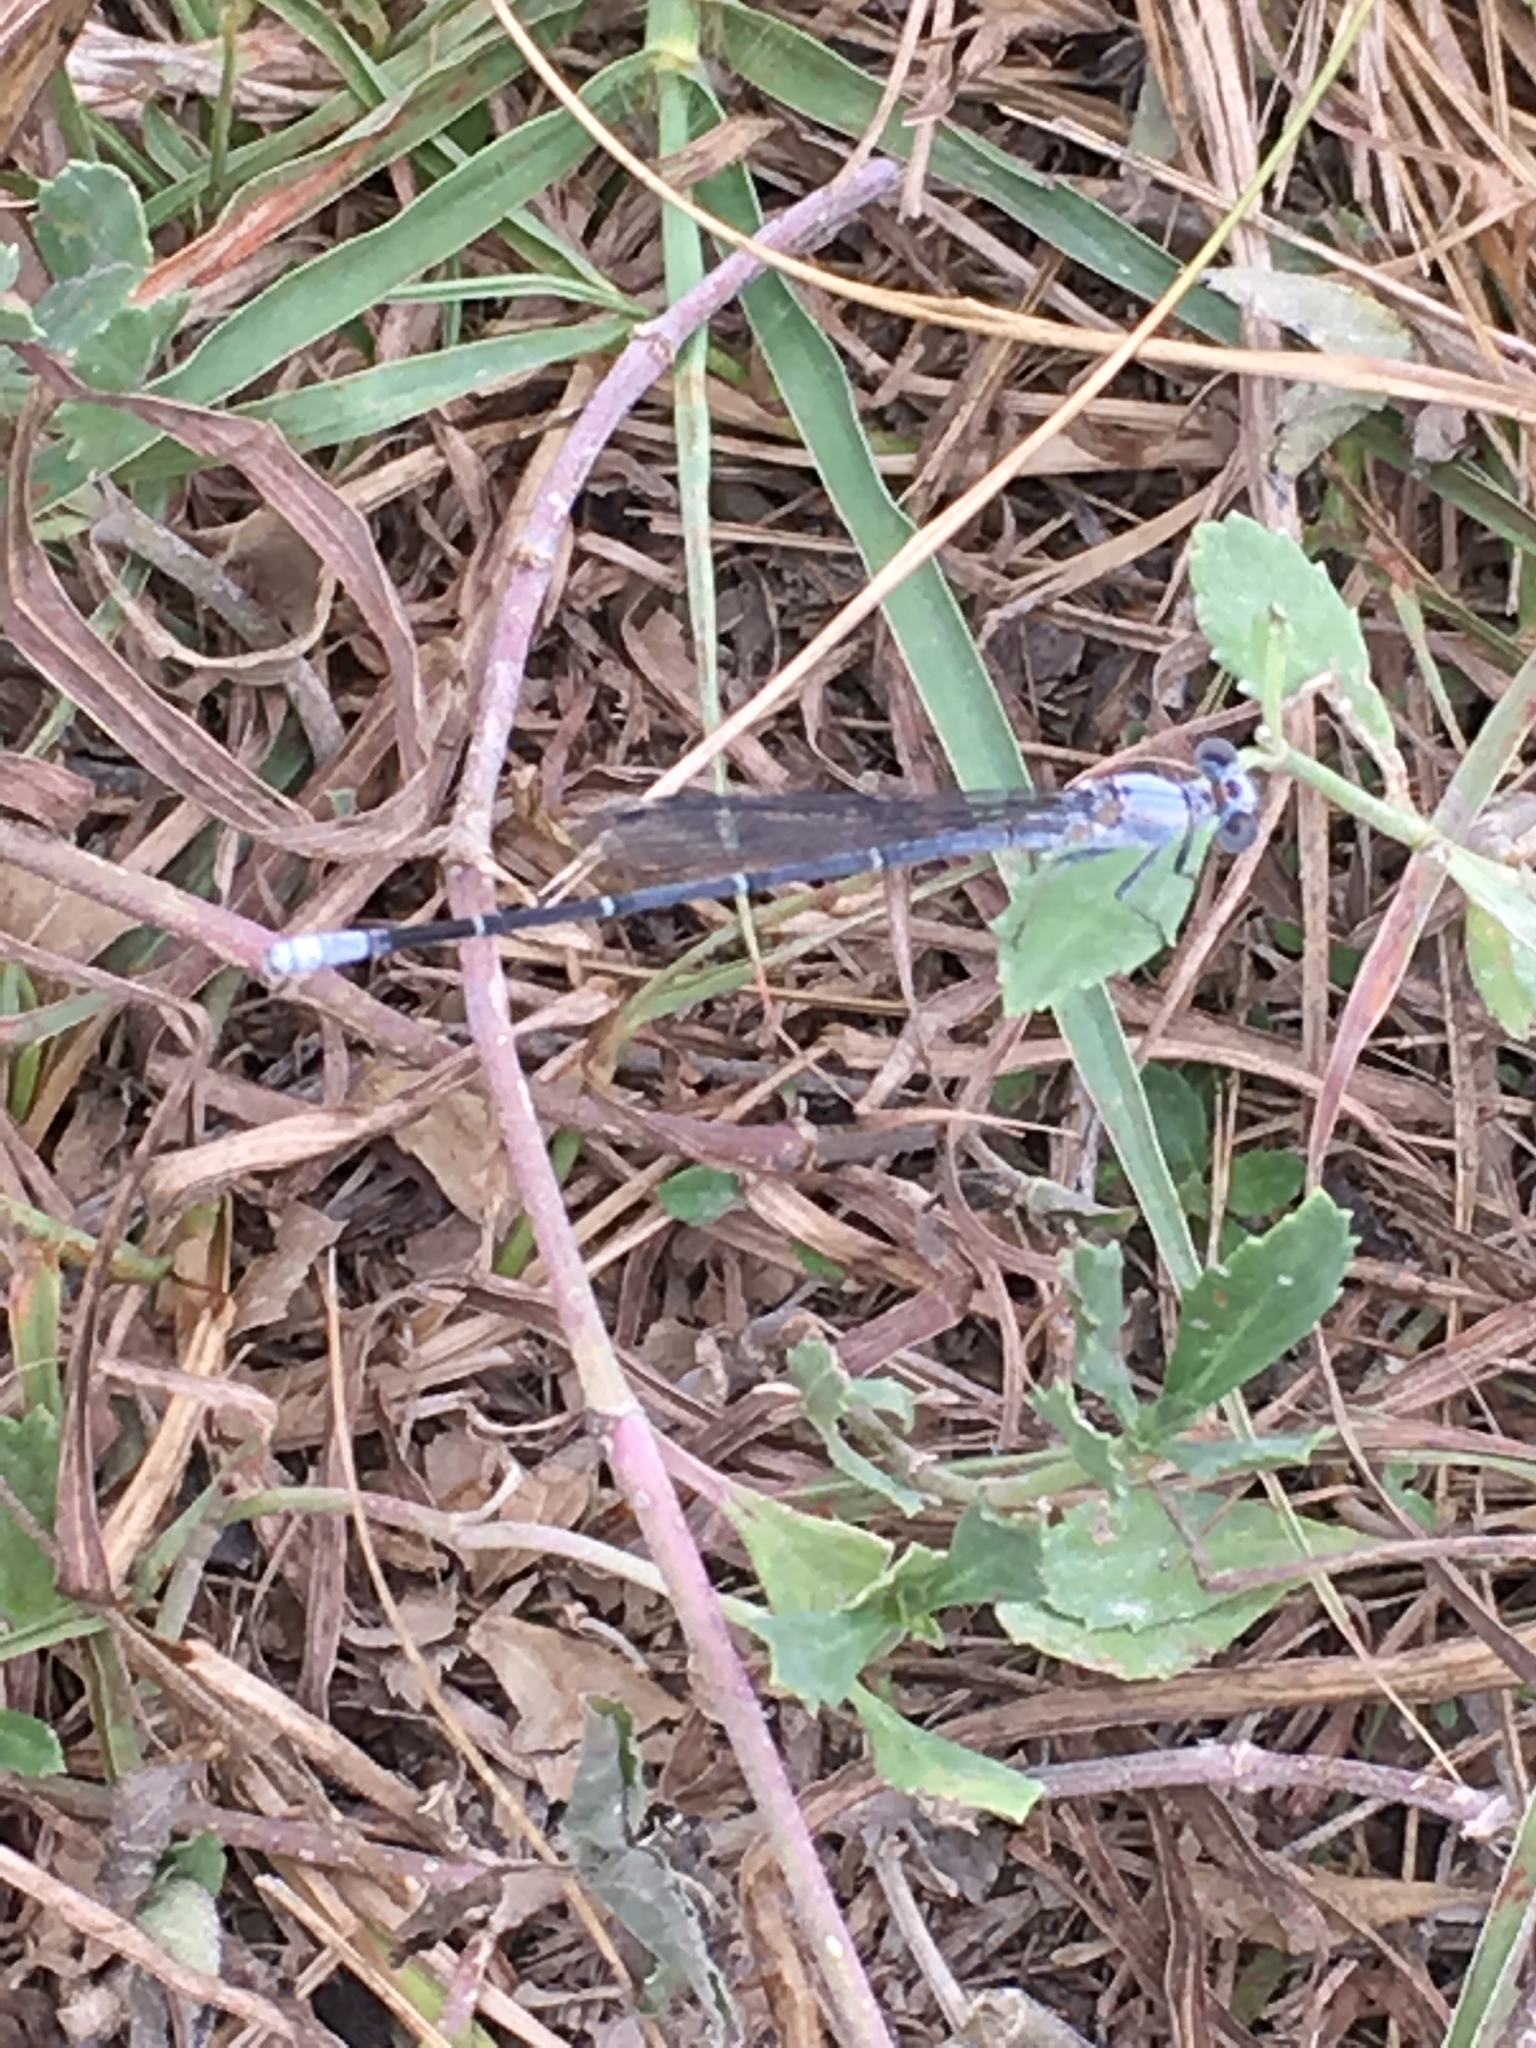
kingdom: Animalia
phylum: Arthropoda
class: Insecta
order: Odonata
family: Coenagrionidae
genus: Argia
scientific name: Argia moesta
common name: Powdered dancer
